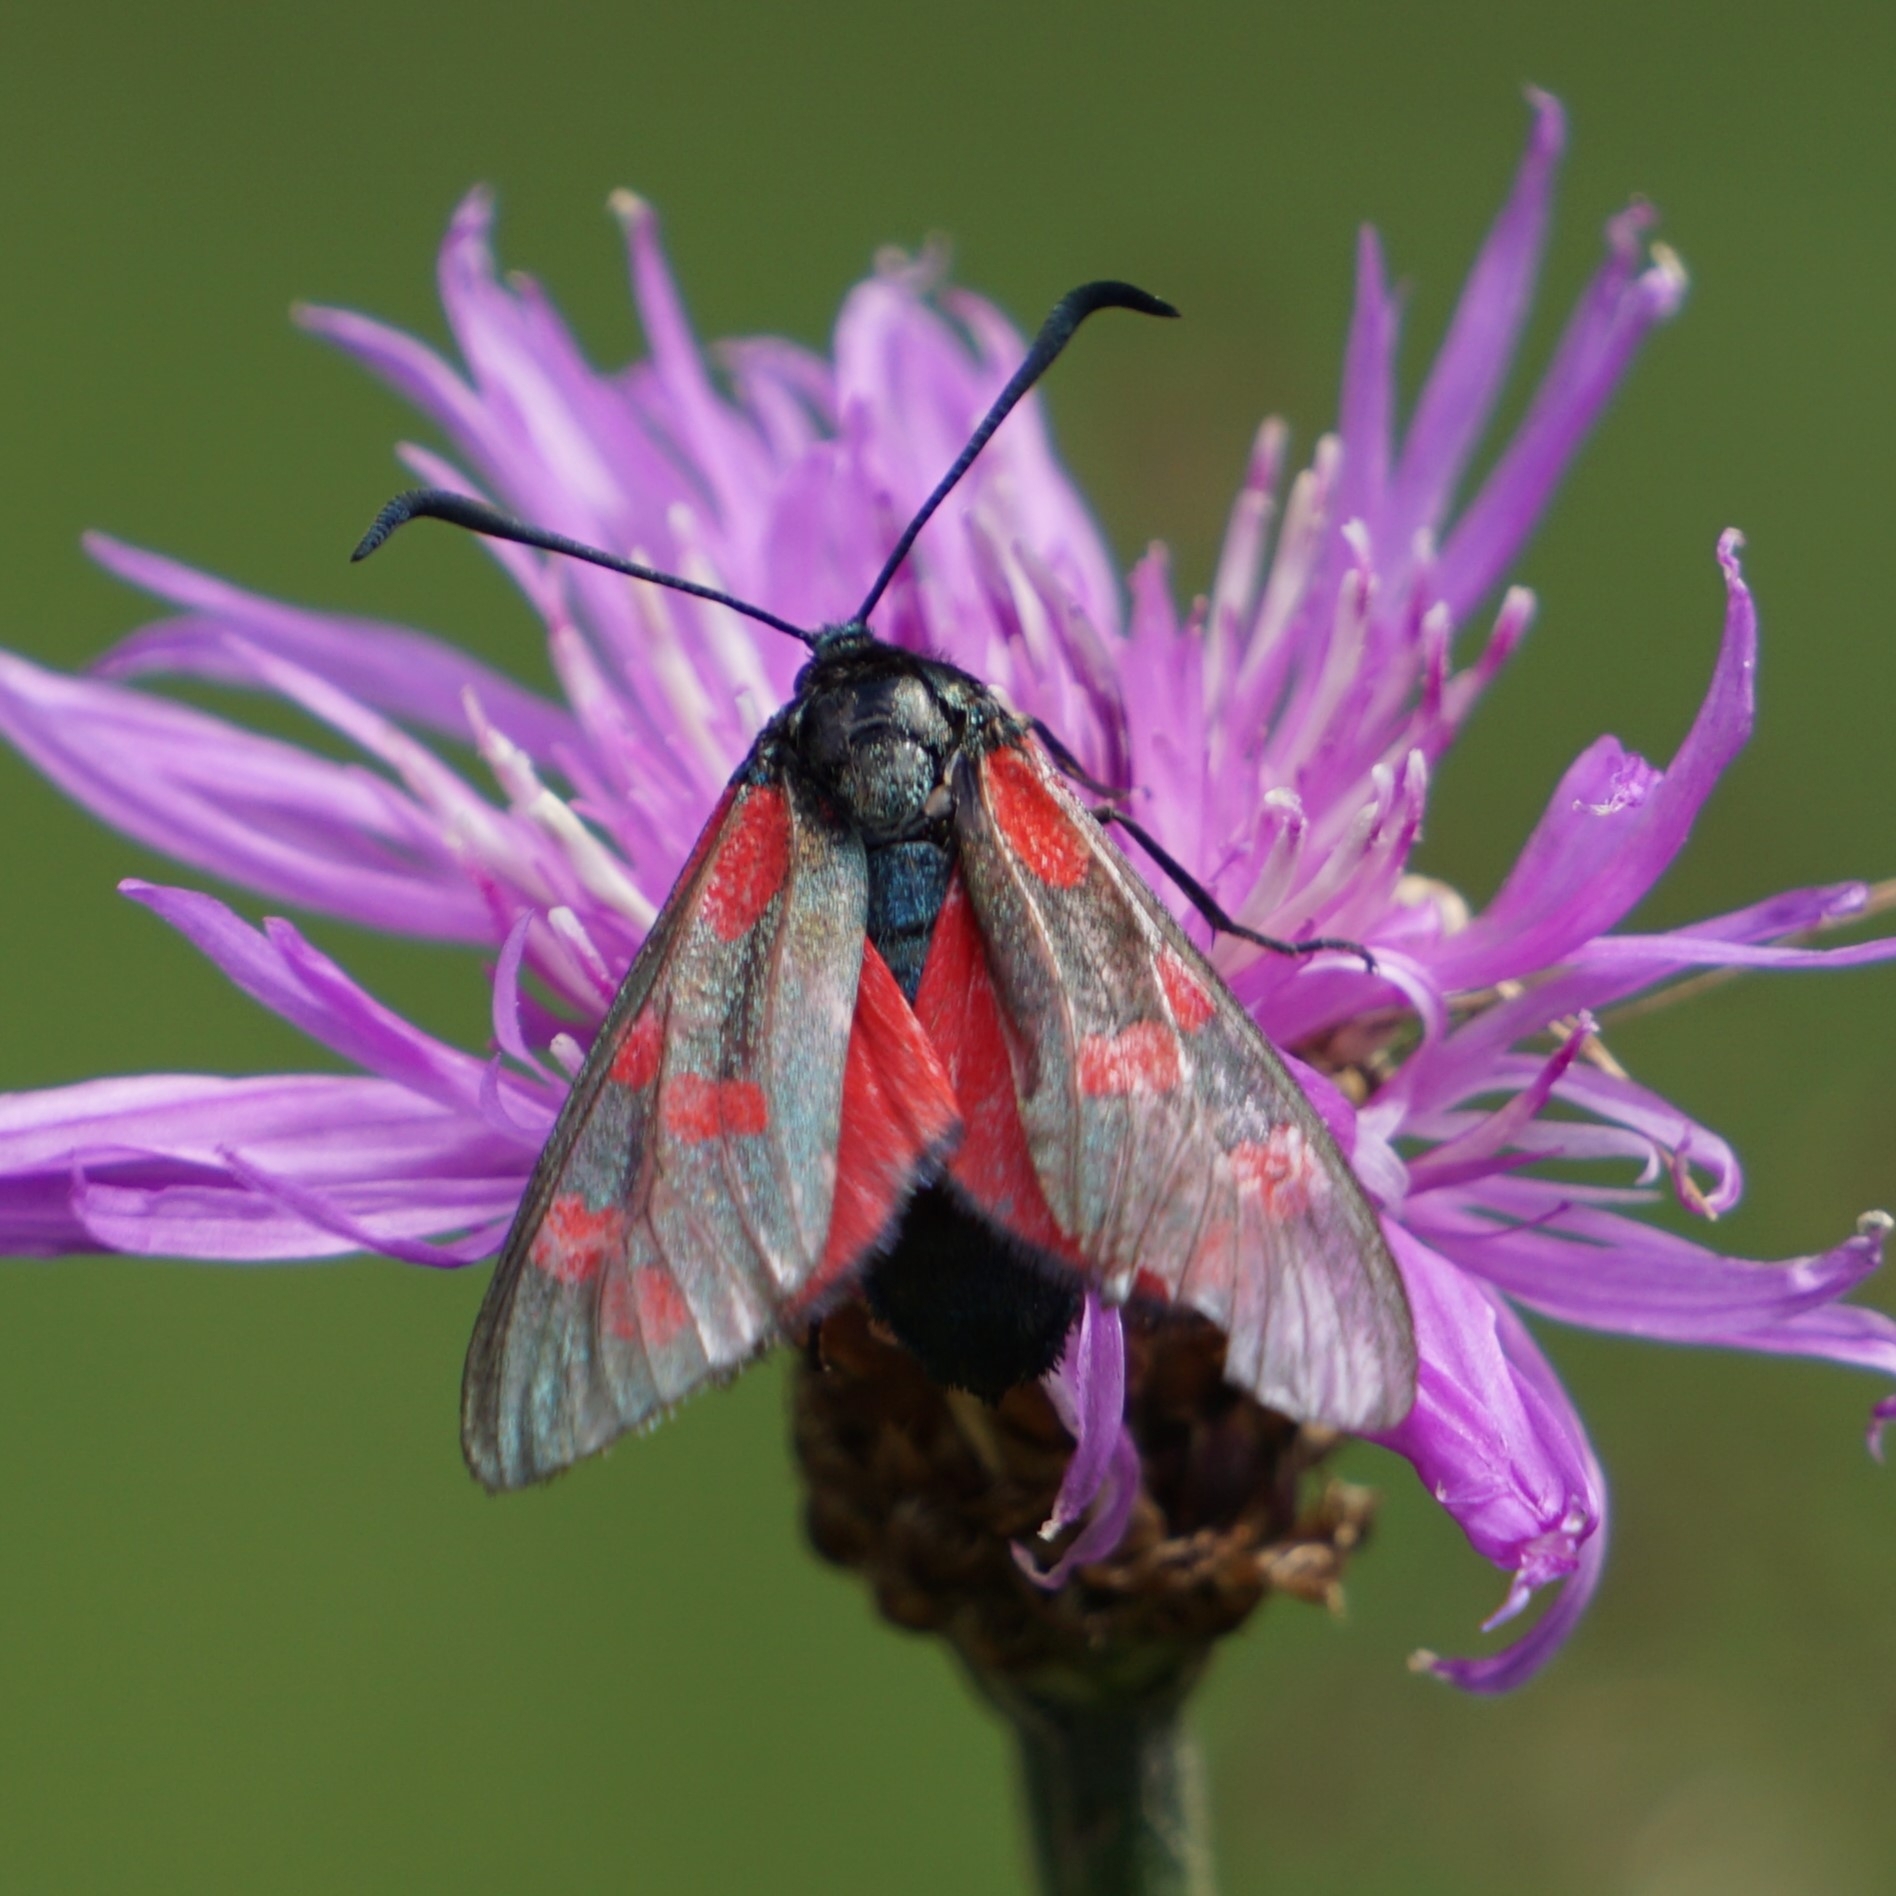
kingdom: Animalia
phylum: Arthropoda
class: Insecta
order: Lepidoptera
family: Zygaenidae
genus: Zygaena
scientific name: Zygaena filipendulae
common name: Six-spot burnet
